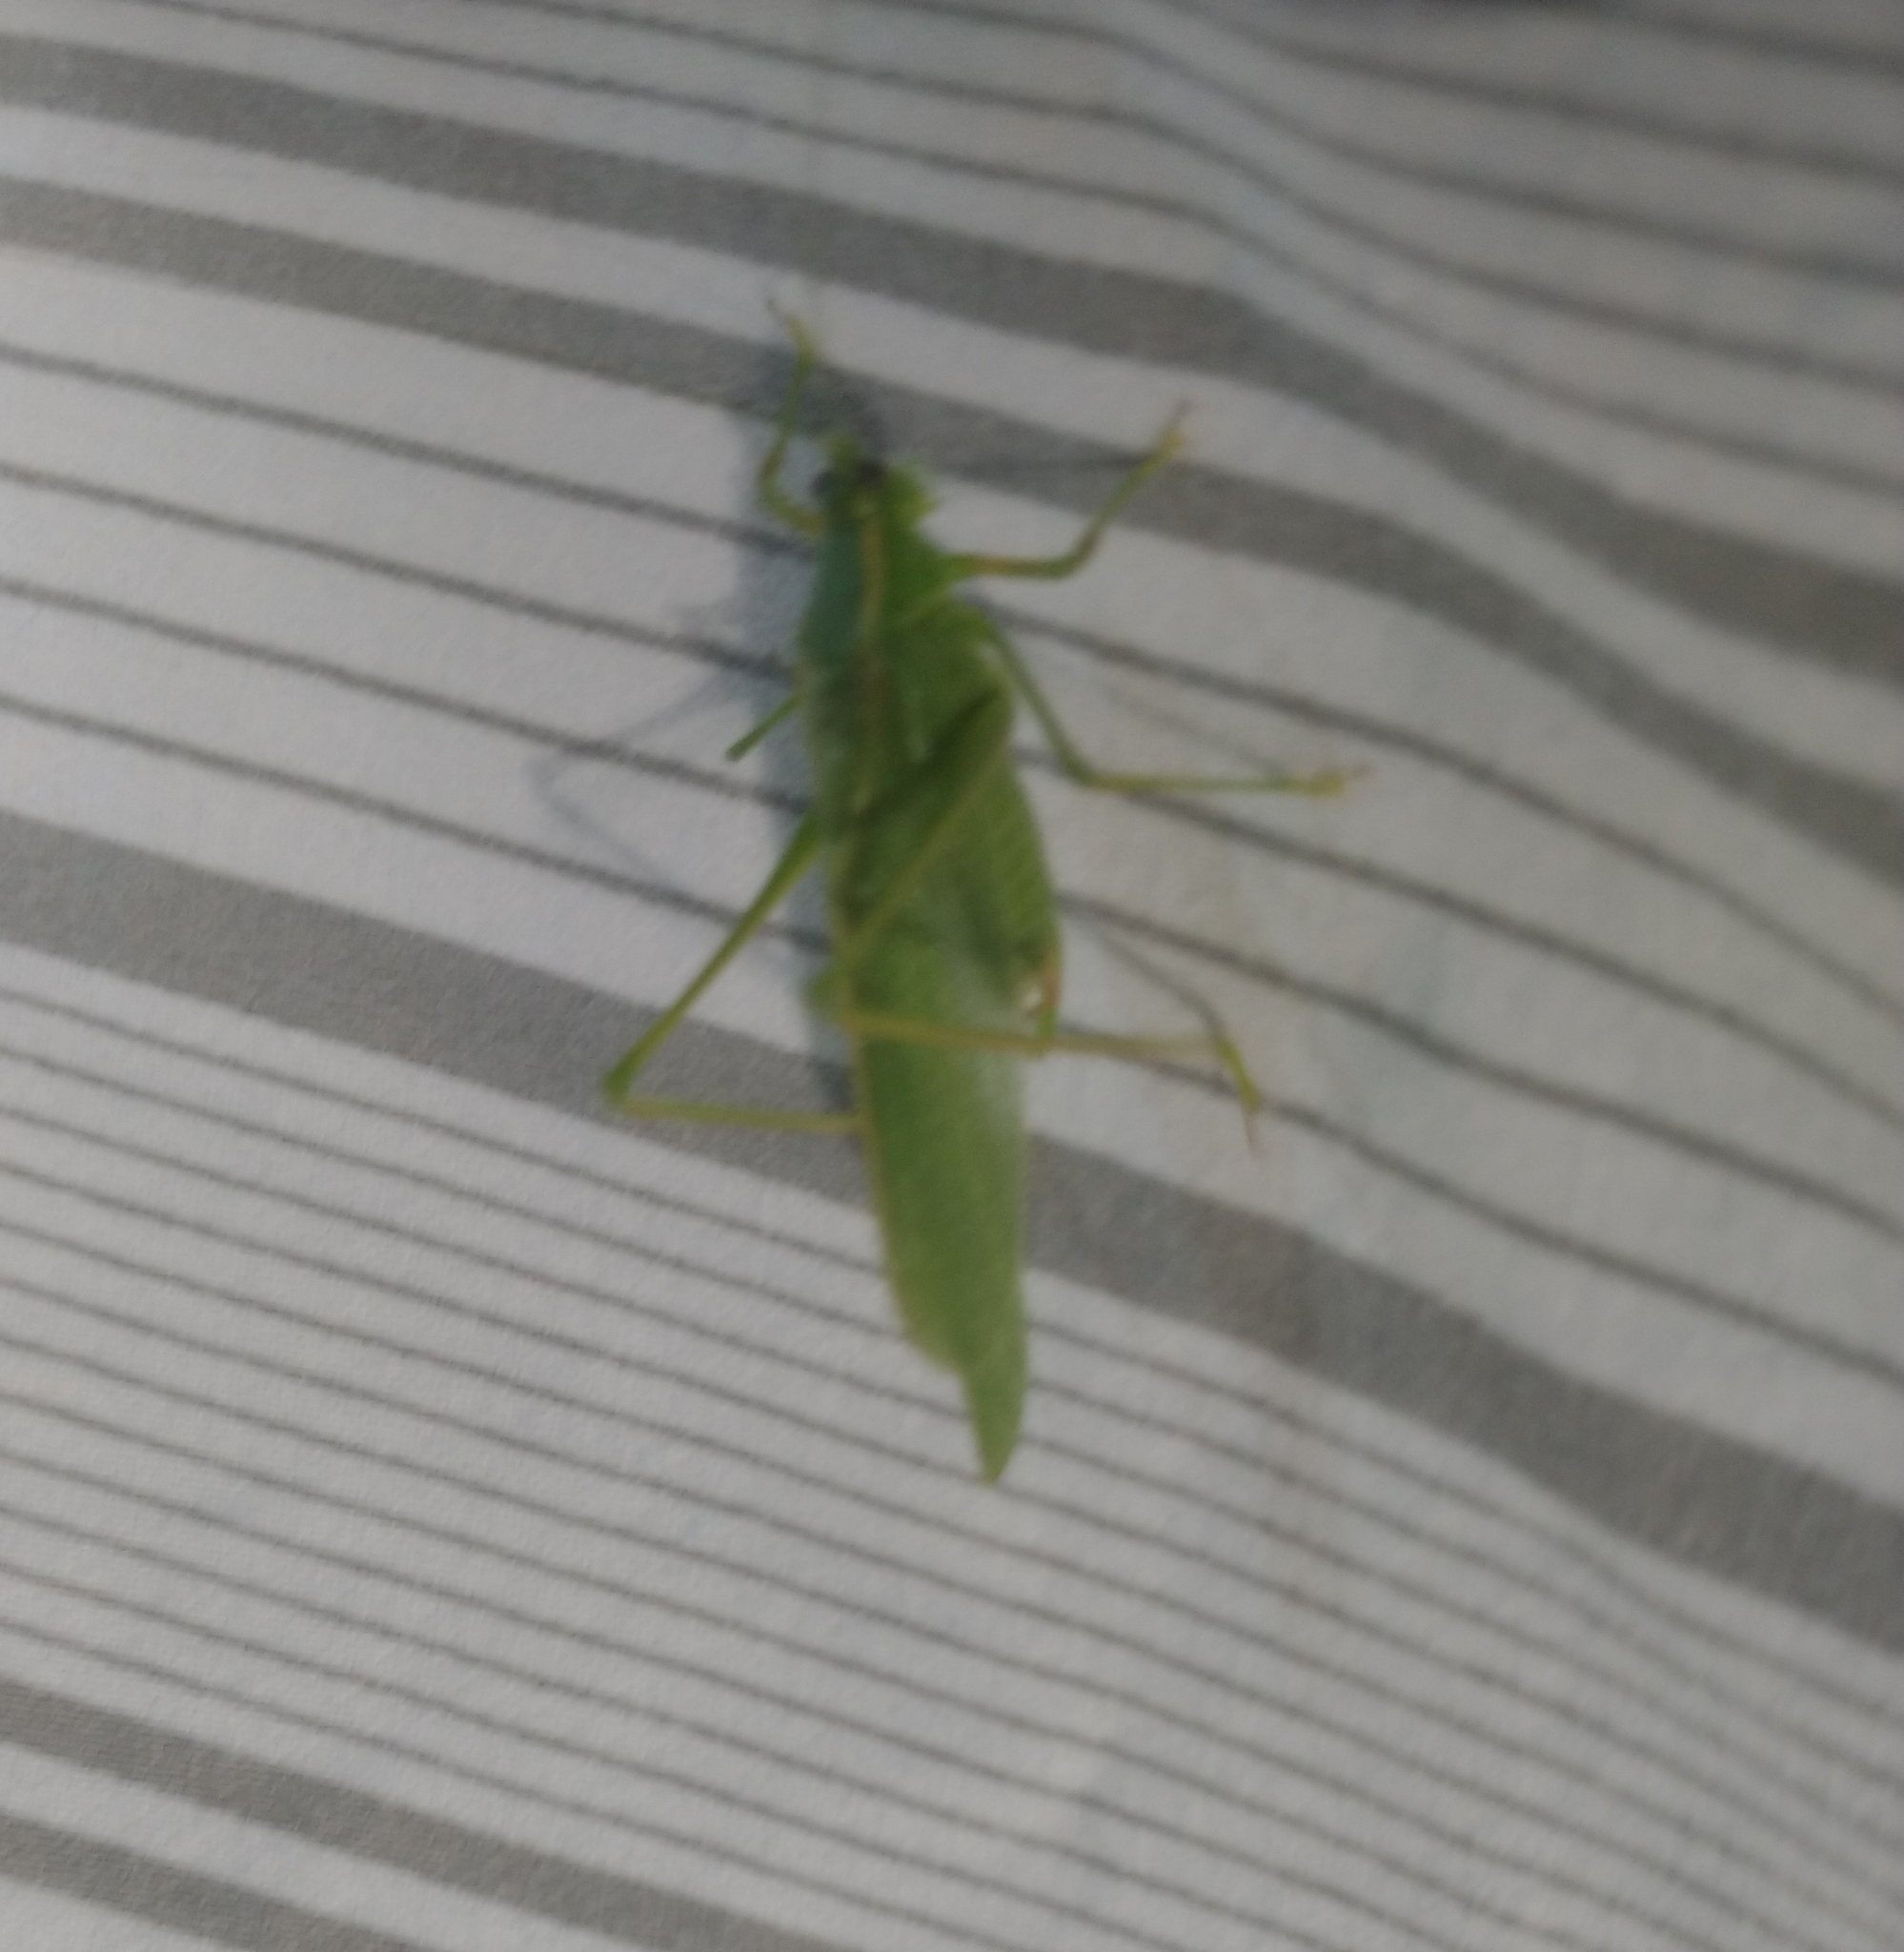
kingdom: Animalia
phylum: Arthropoda
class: Insecta
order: Orthoptera
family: Tettigoniidae
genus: Scudderia
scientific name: Scudderia septentrionalis
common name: Northern bush-katydid
